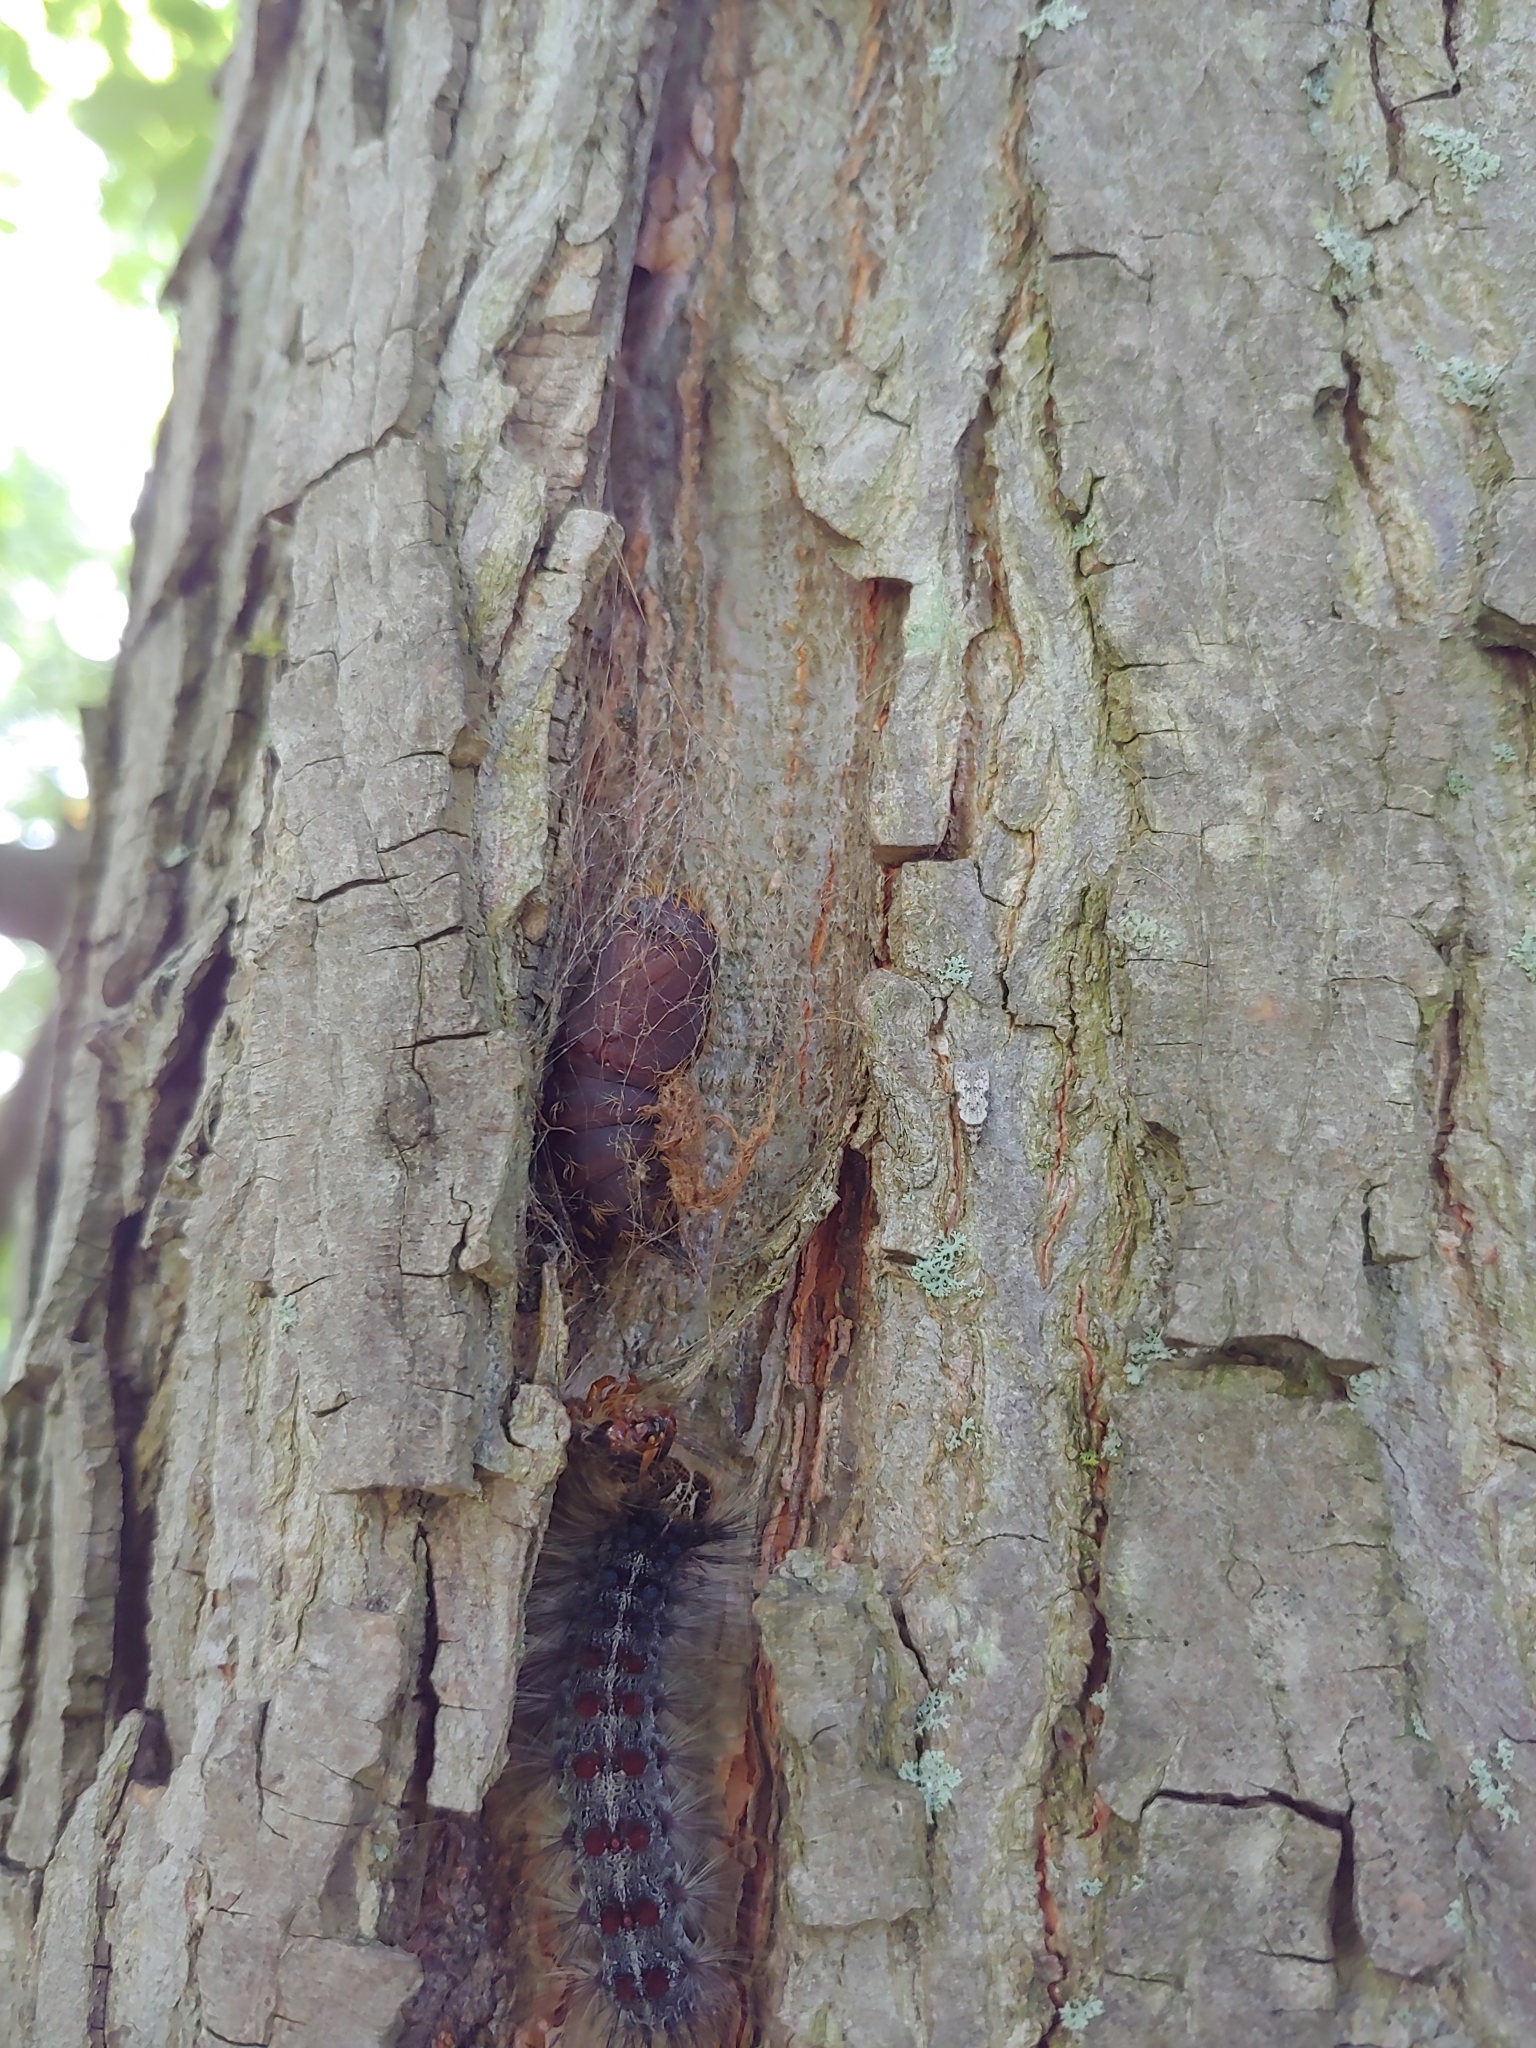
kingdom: Animalia
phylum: Arthropoda
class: Insecta
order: Lepidoptera
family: Erebidae
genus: Lymantria
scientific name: Lymantria dispar
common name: Gypsy moth
